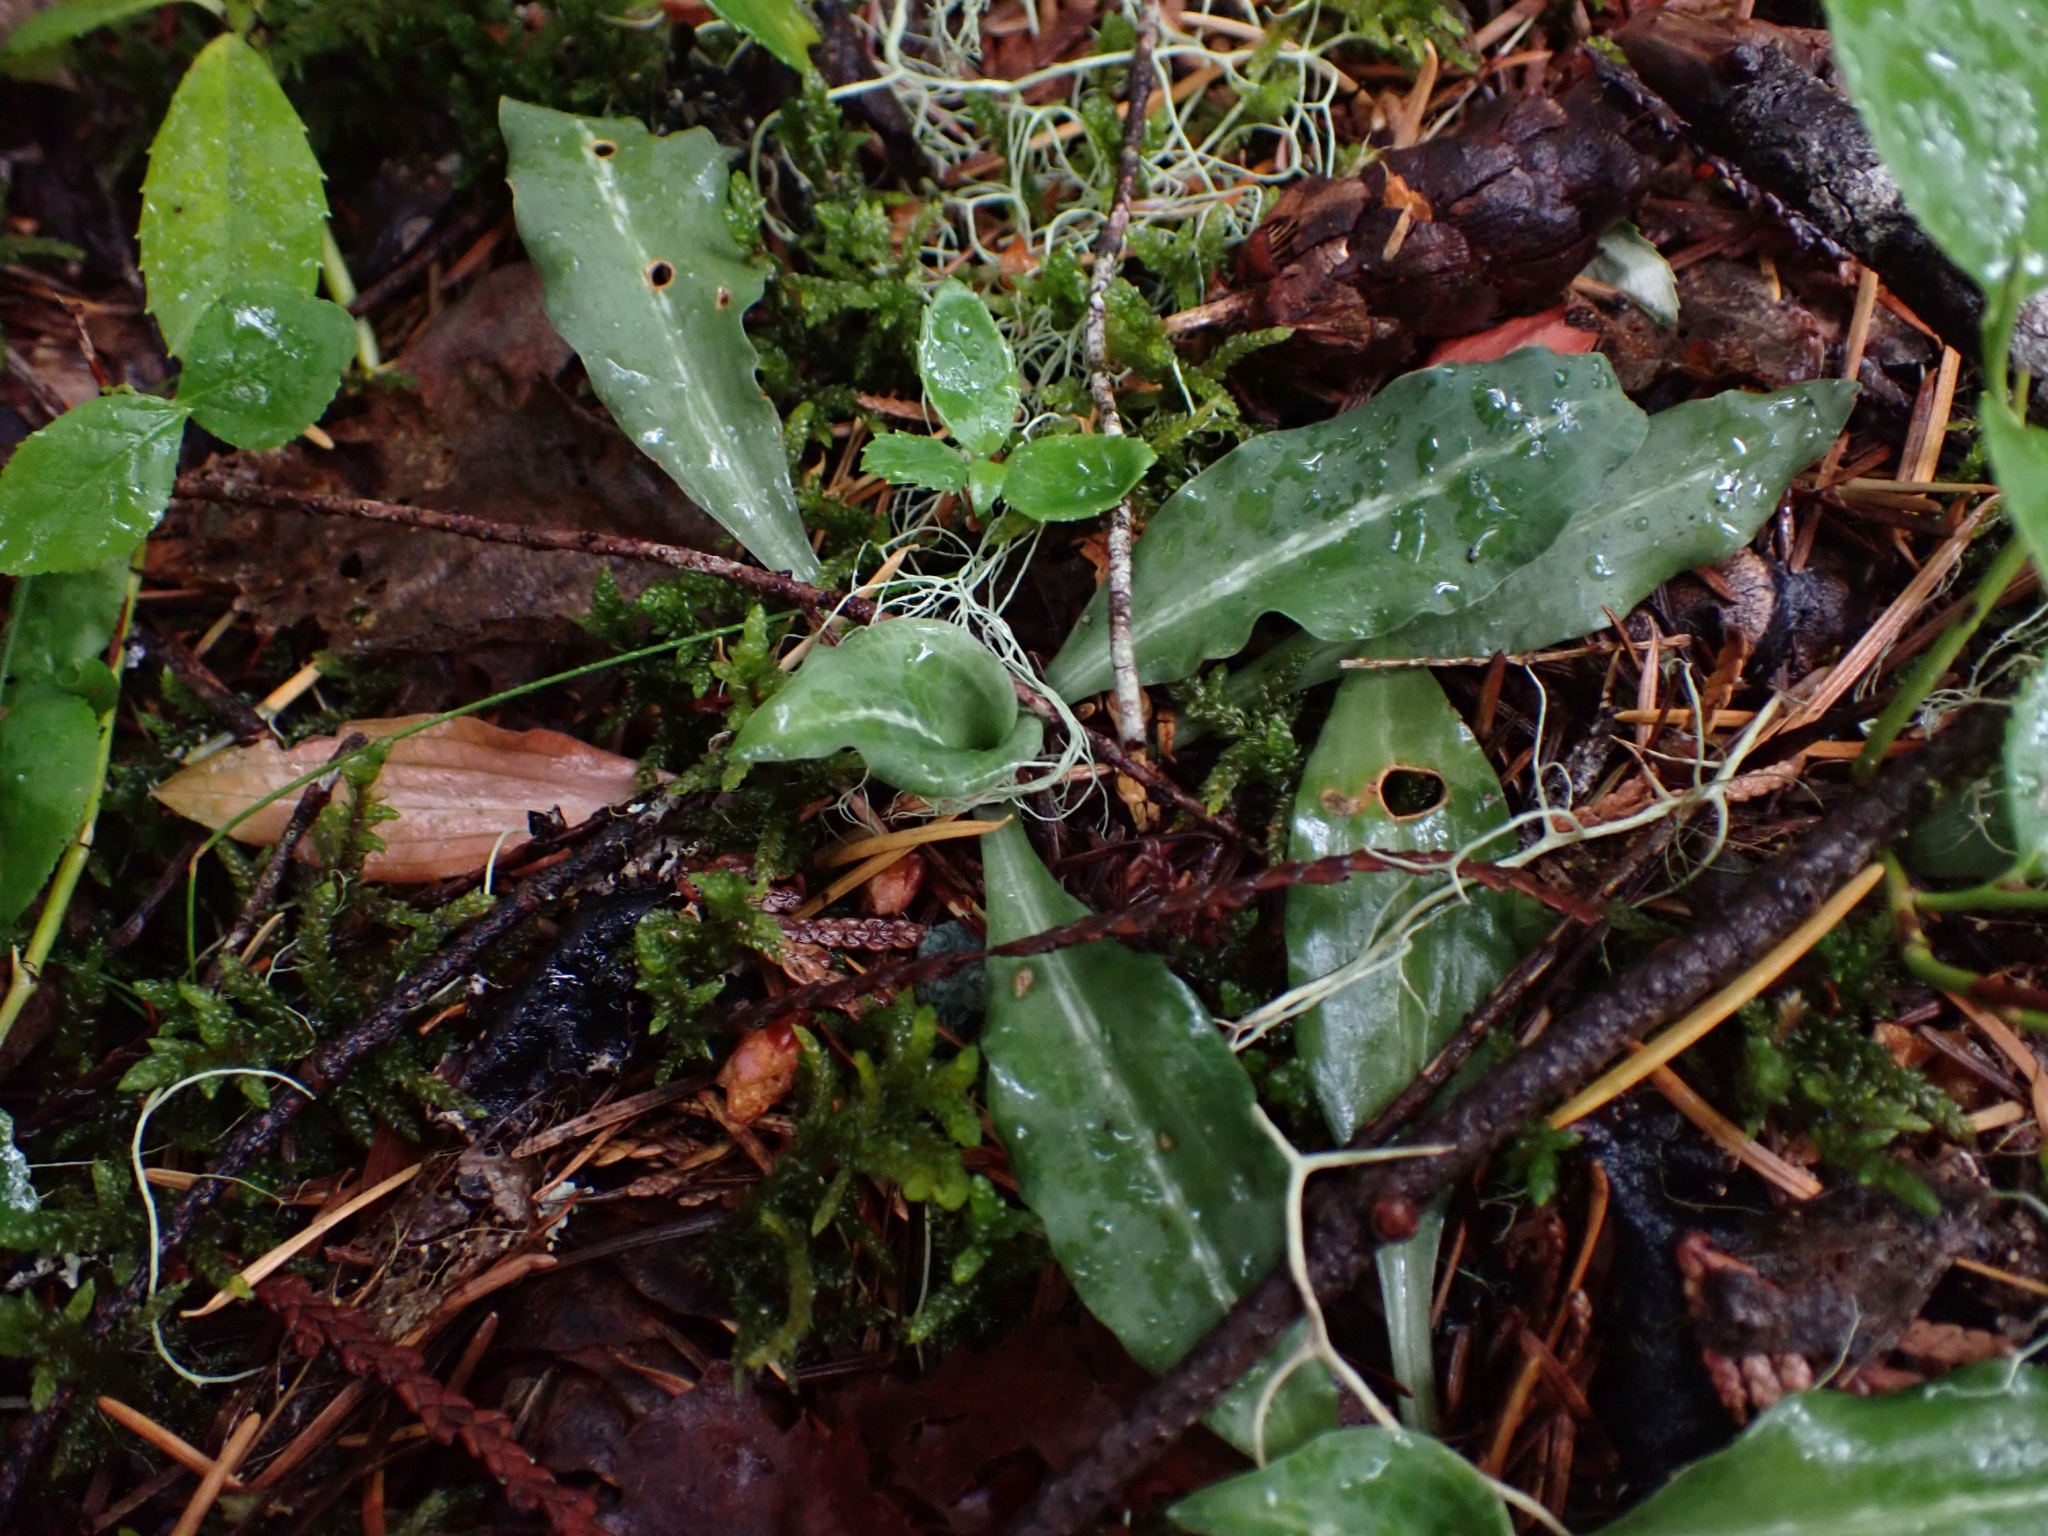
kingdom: Plantae
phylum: Tracheophyta
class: Liliopsida
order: Asparagales
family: Orchidaceae
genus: Goodyera
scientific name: Goodyera oblongifolia
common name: Giant rattlesnake-plantain
